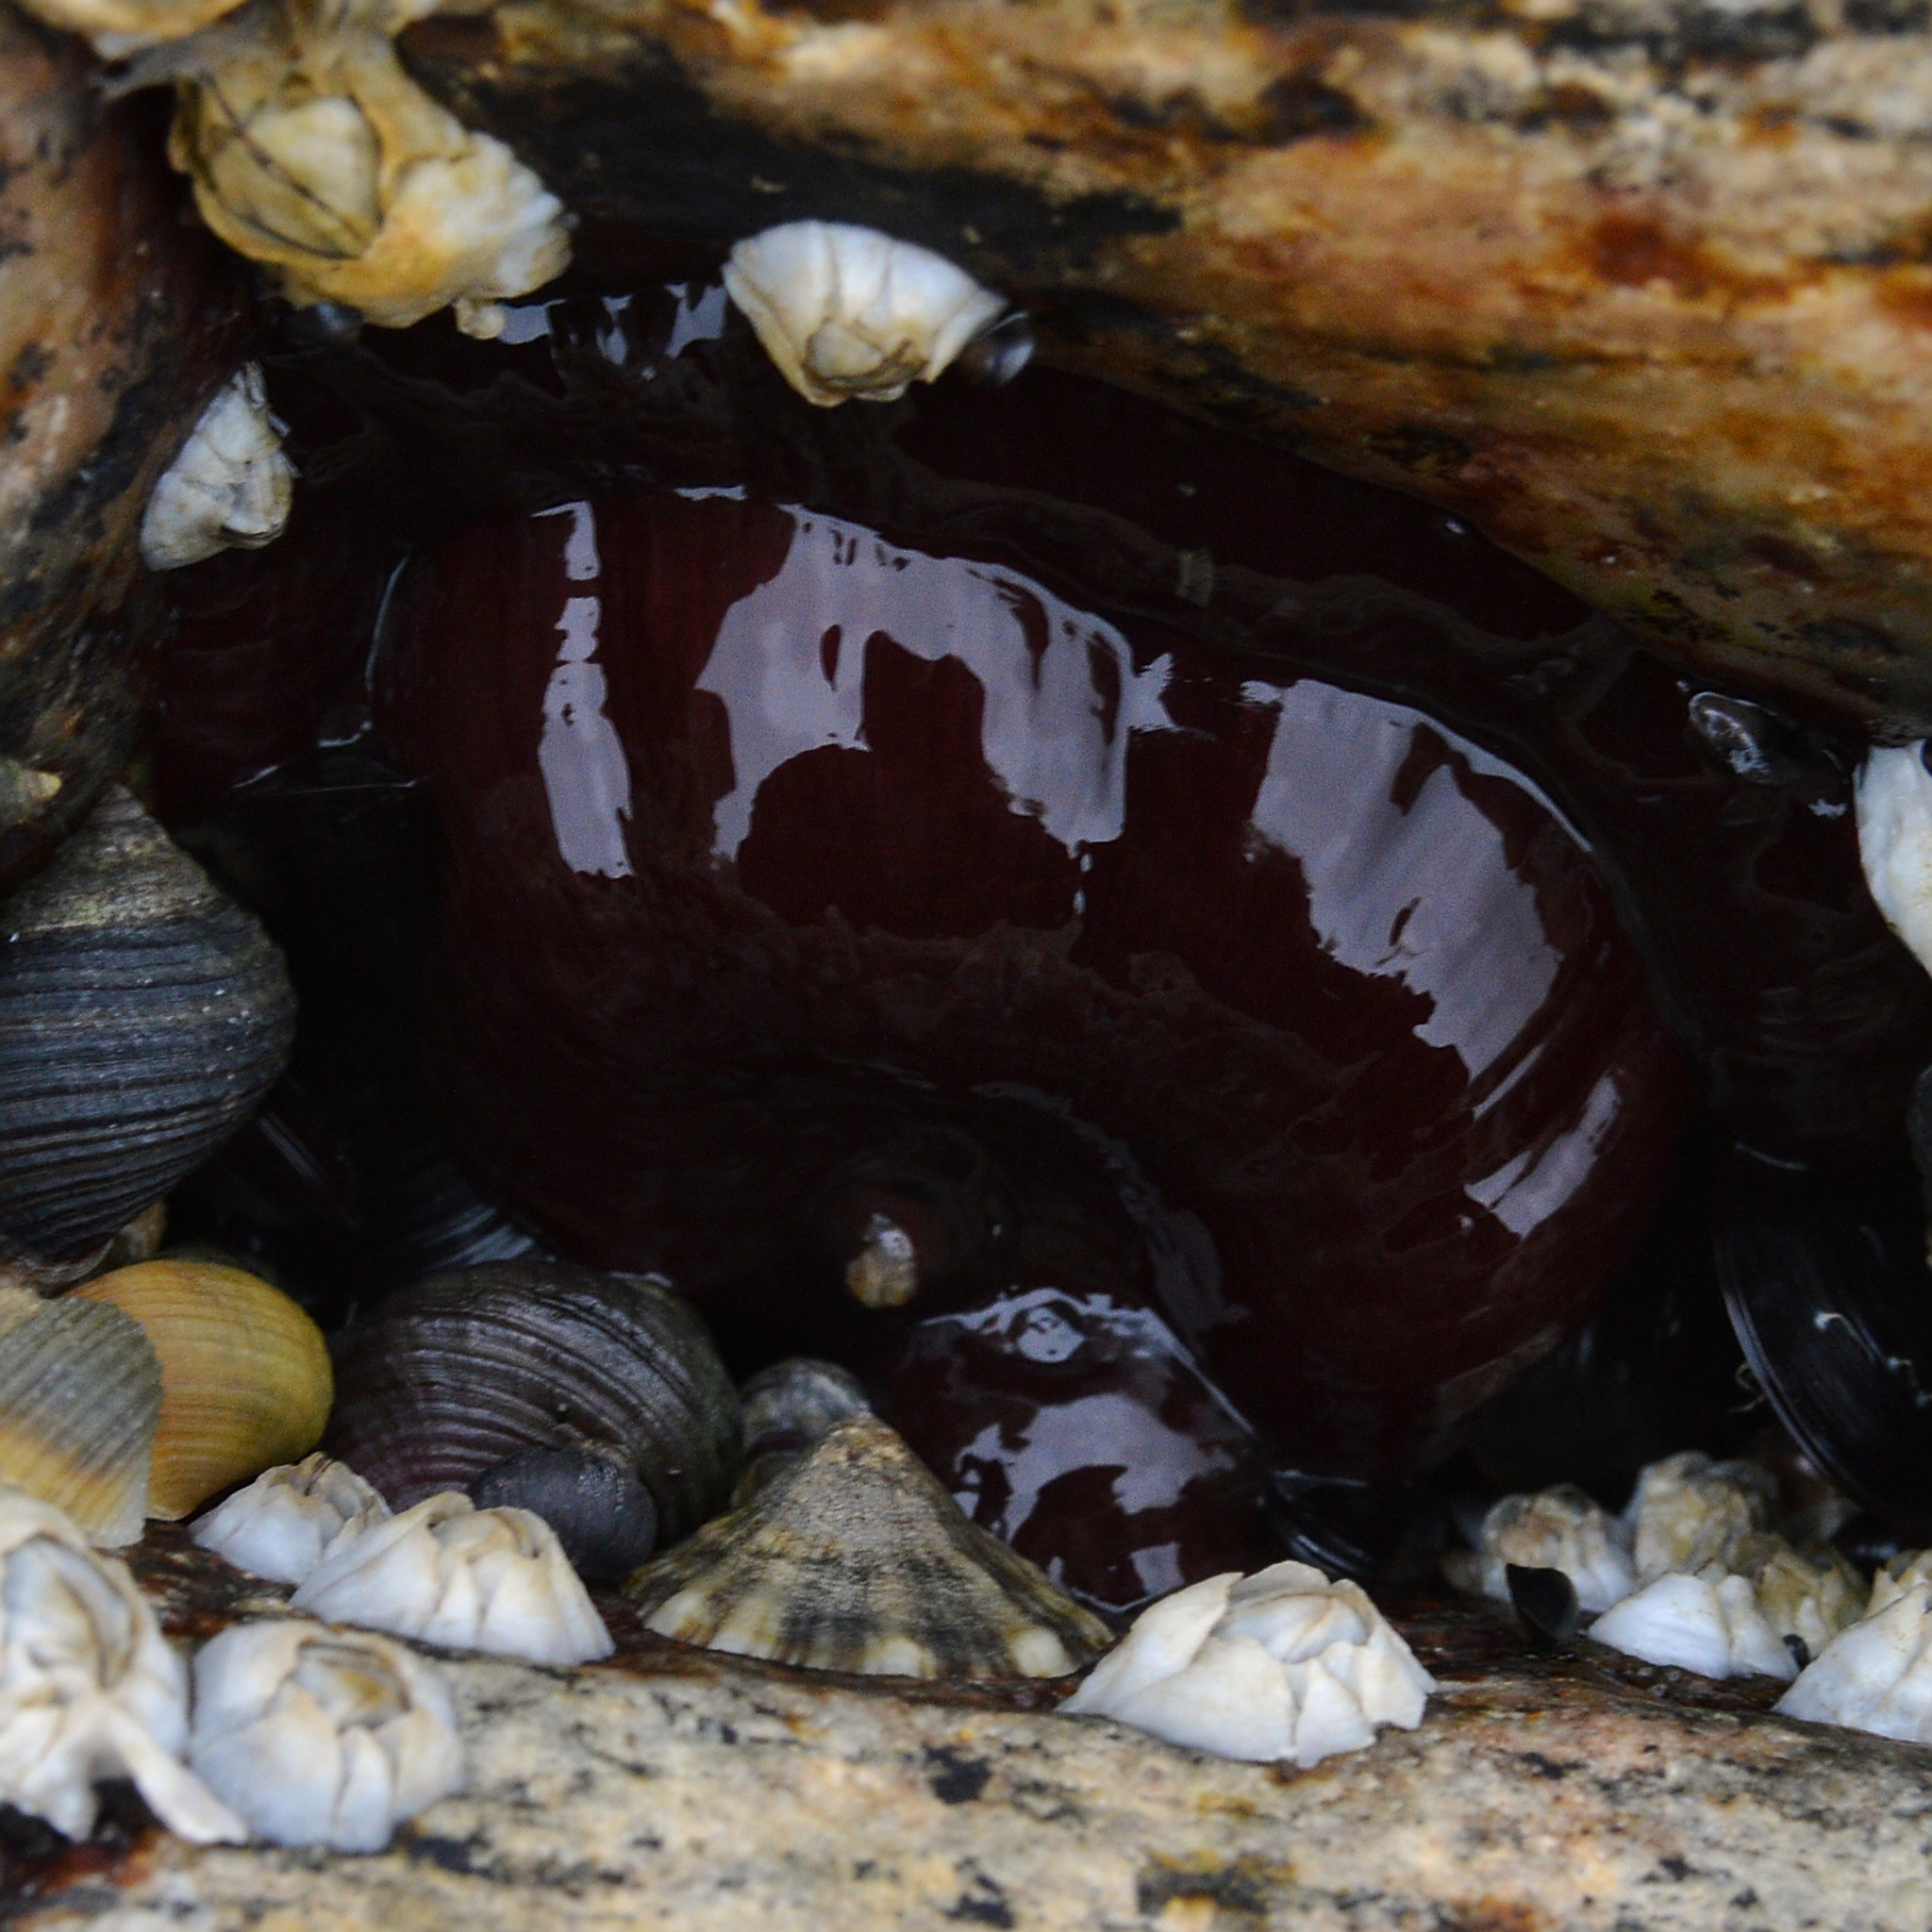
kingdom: Animalia
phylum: Cnidaria
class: Anthozoa
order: Actiniaria
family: Actiniidae
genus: Actinia
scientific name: Actinia equina
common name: Beadlet anemone
